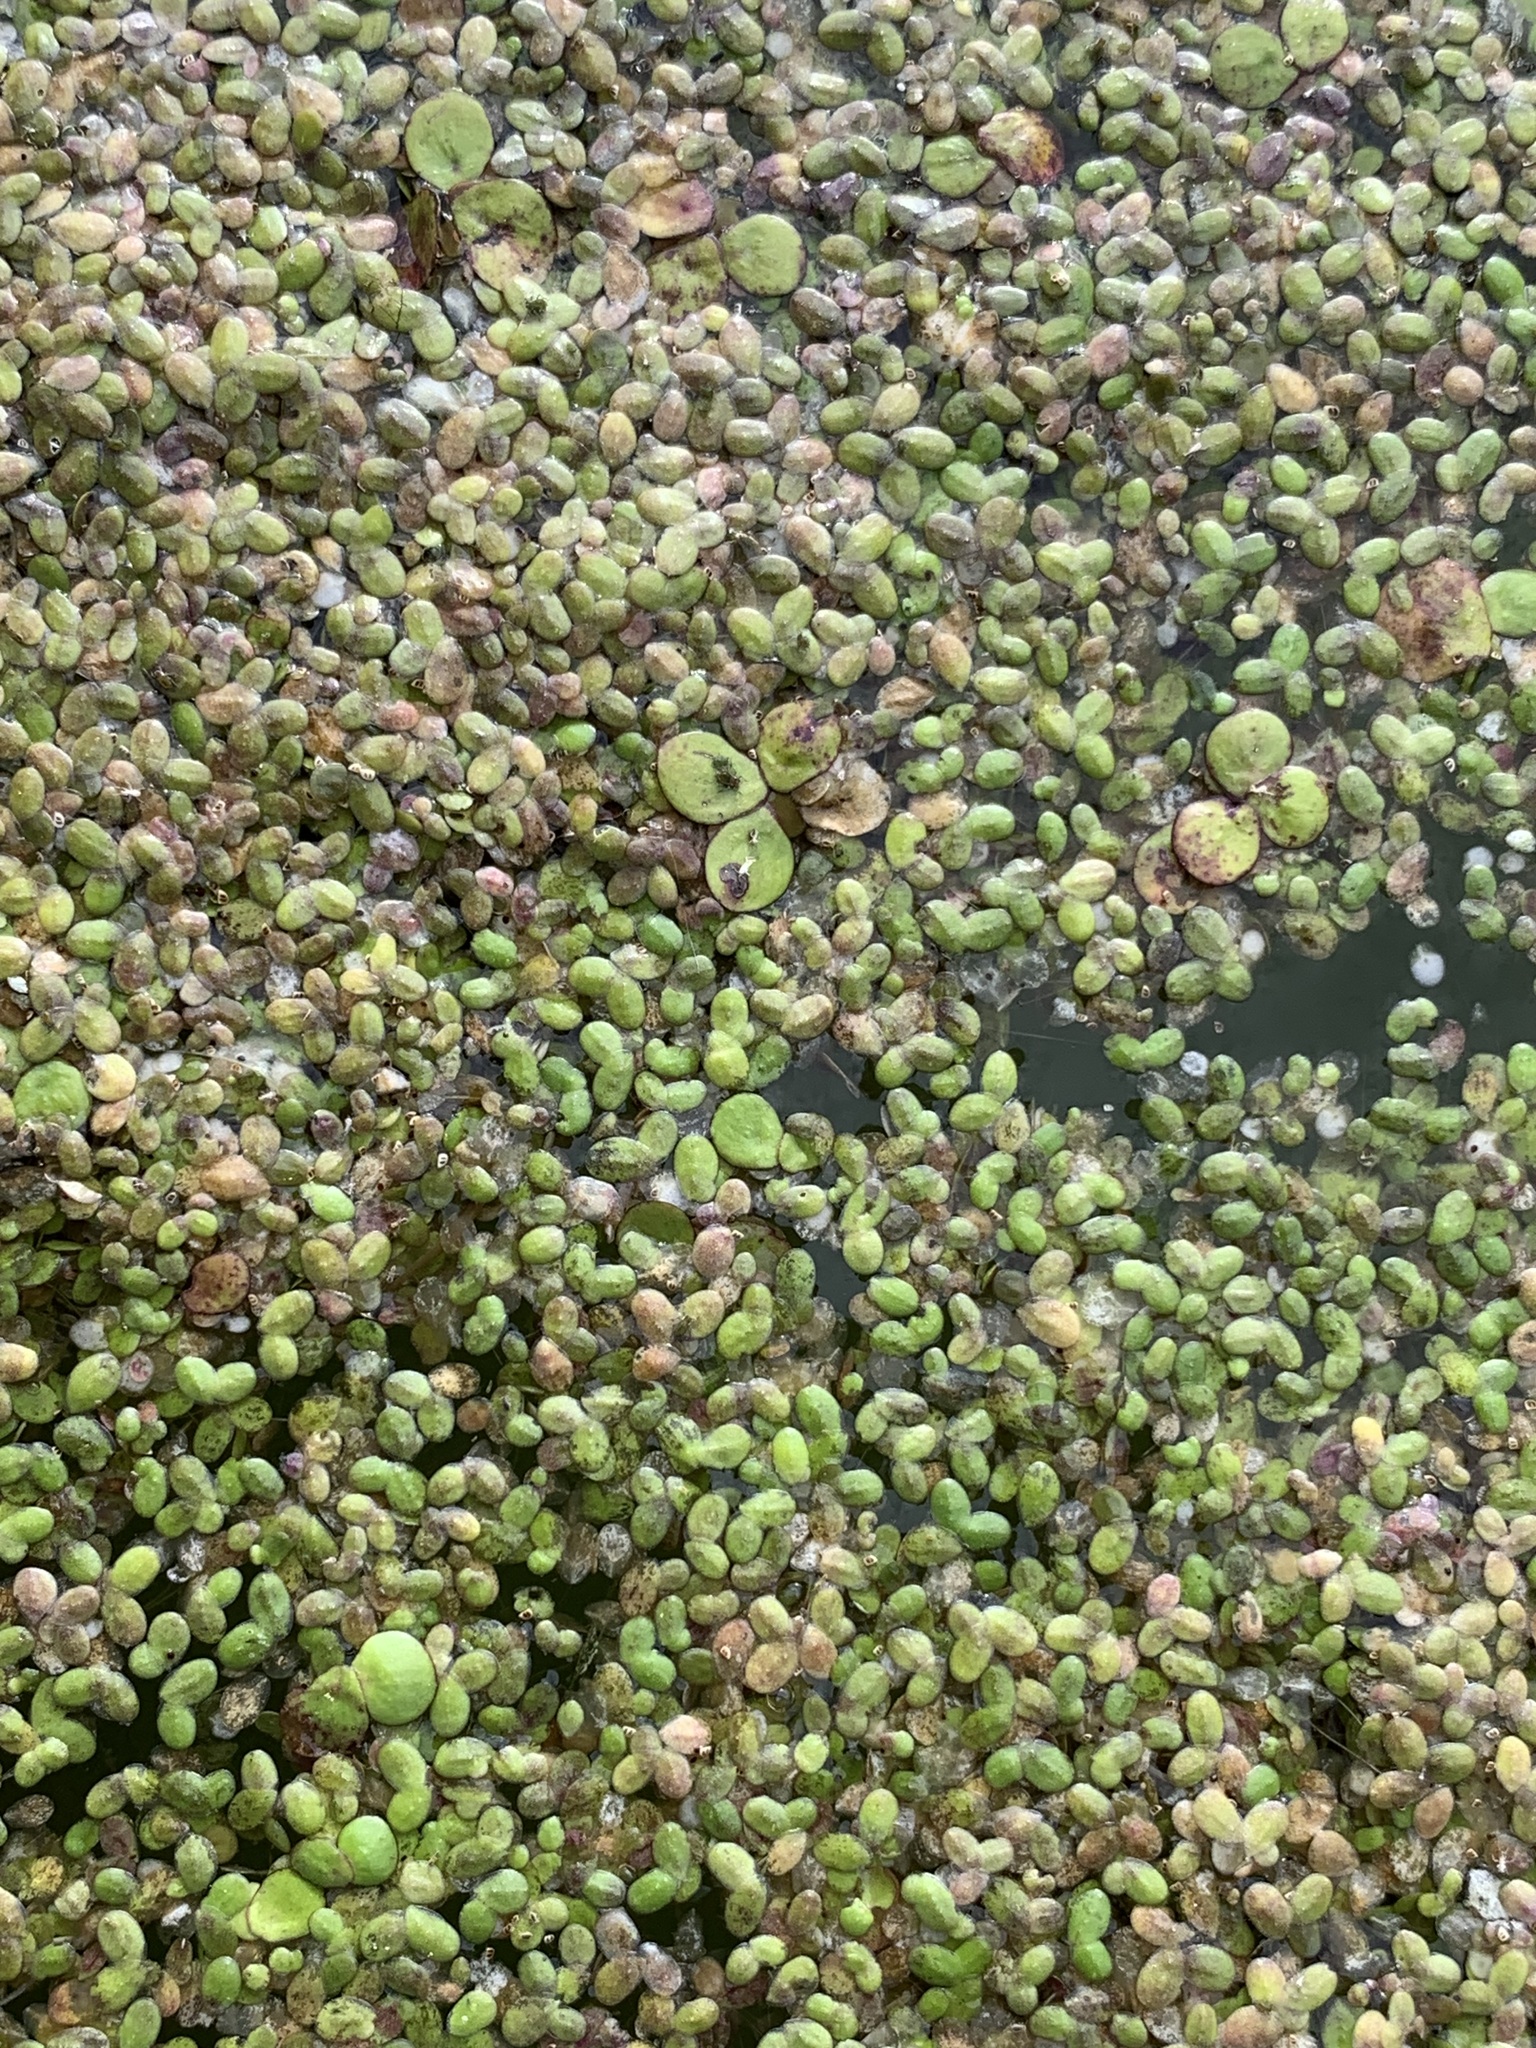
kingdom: Plantae
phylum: Tracheophyta
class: Liliopsida
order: Alismatales
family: Araceae
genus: Lemna
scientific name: Lemna turionifera
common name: Perennial duckweed
